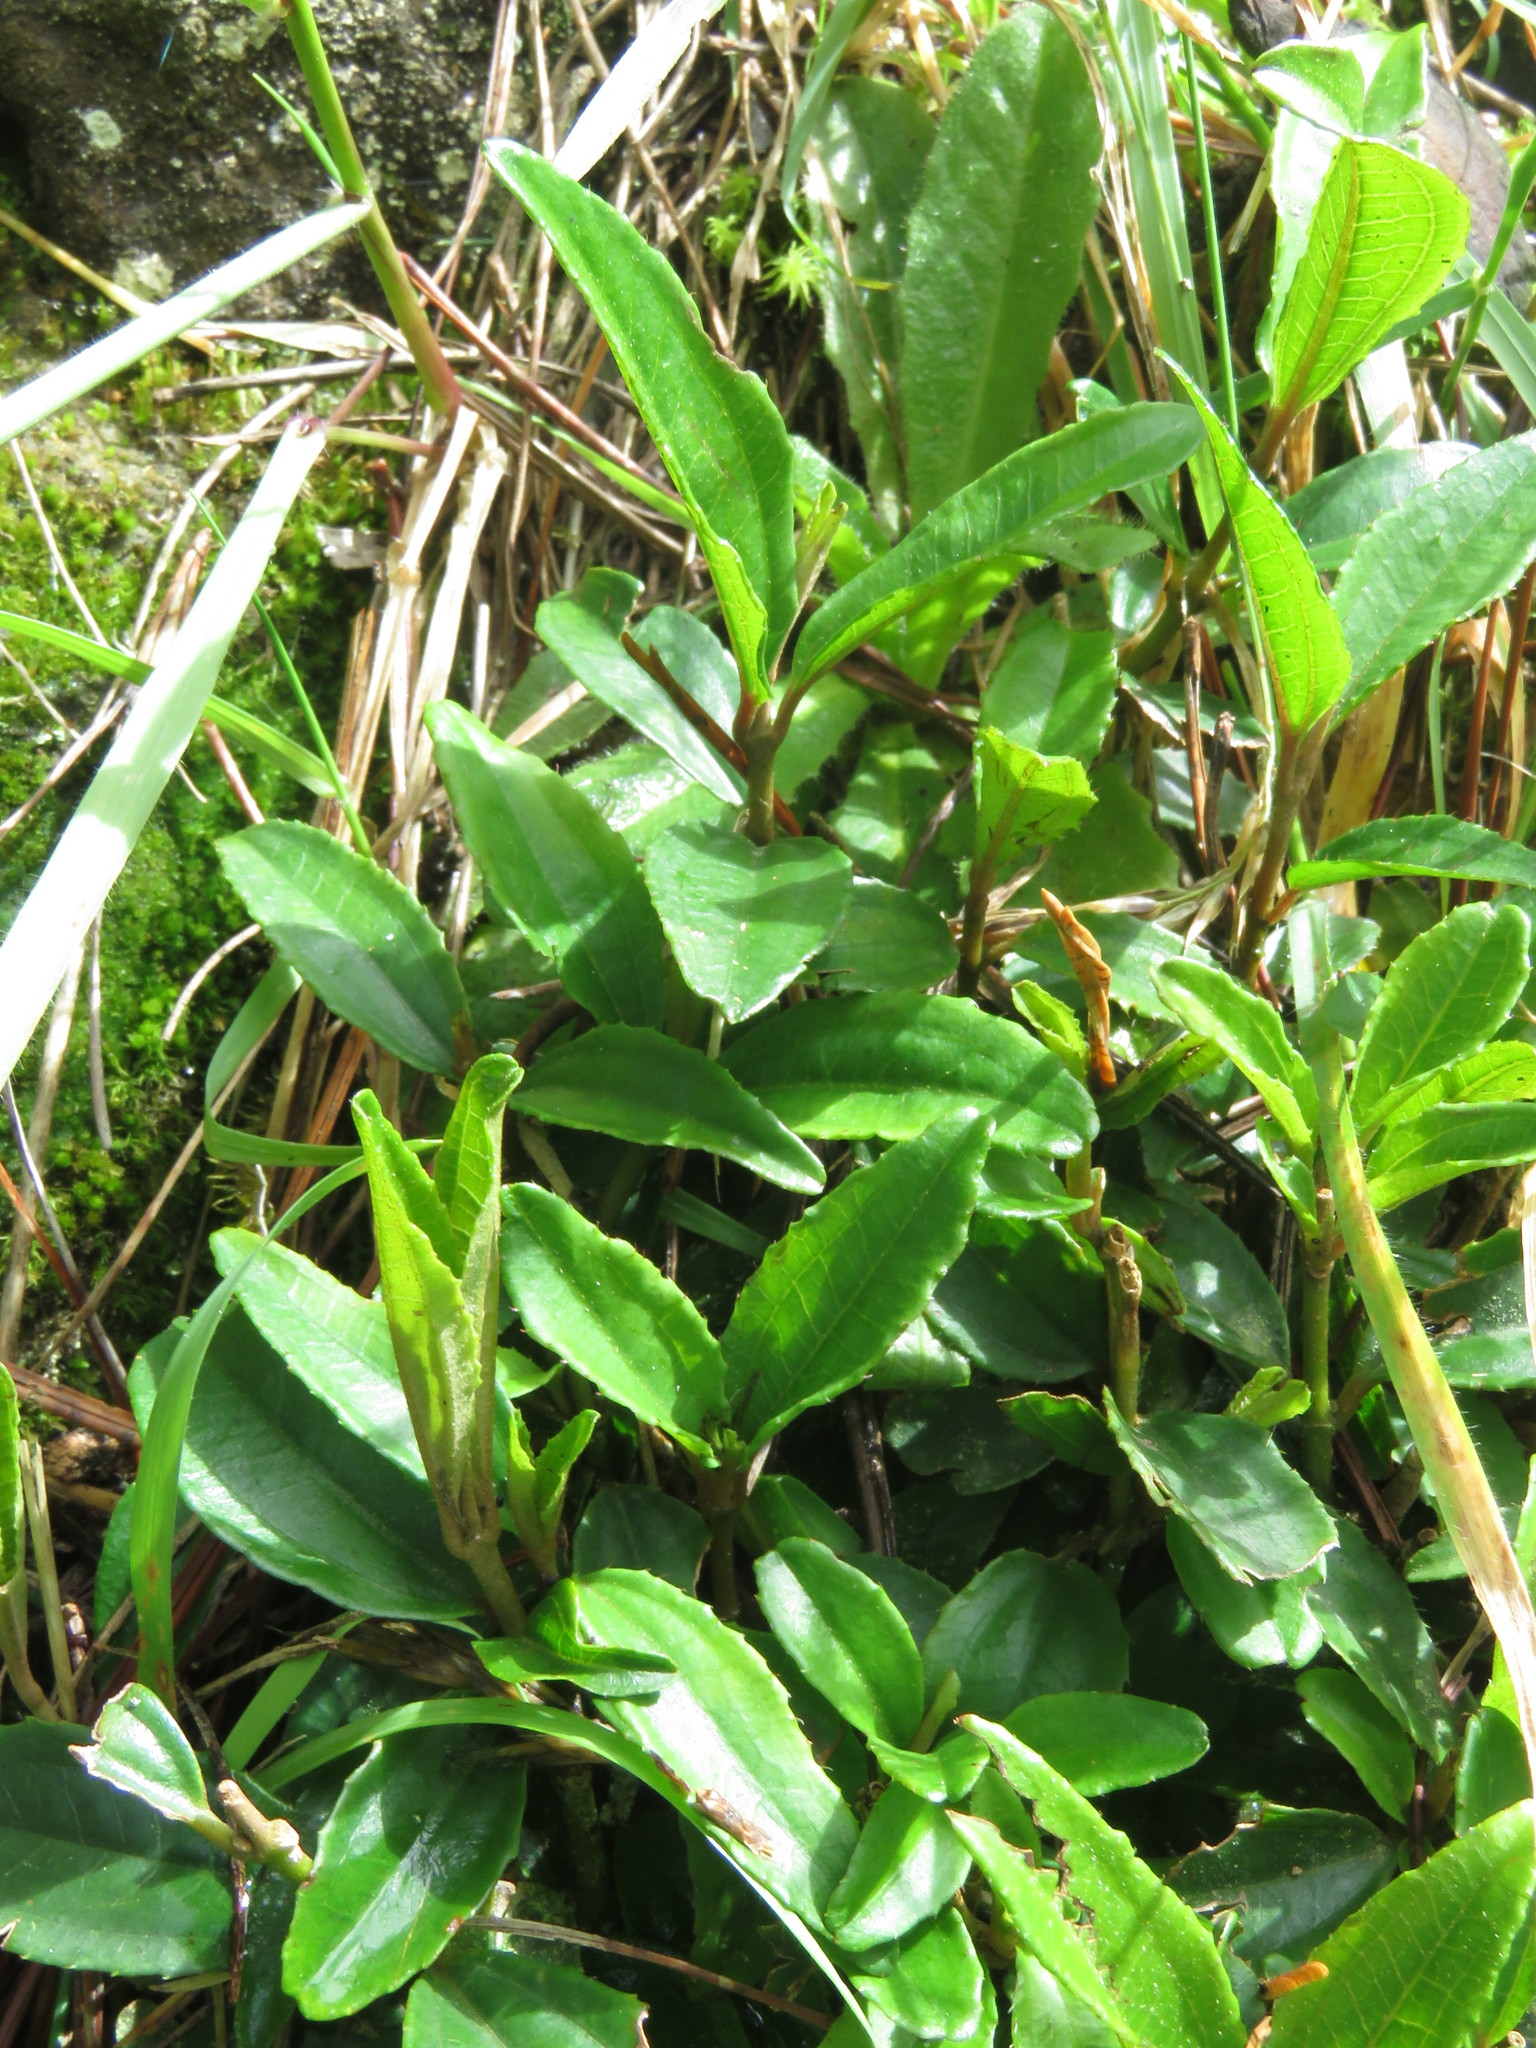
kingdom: Plantae
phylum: Tracheophyta
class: Magnoliopsida
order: Myrtales
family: Melastomataceae
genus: Miconia
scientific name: Miconia squamulosa
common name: Squamulose maya
